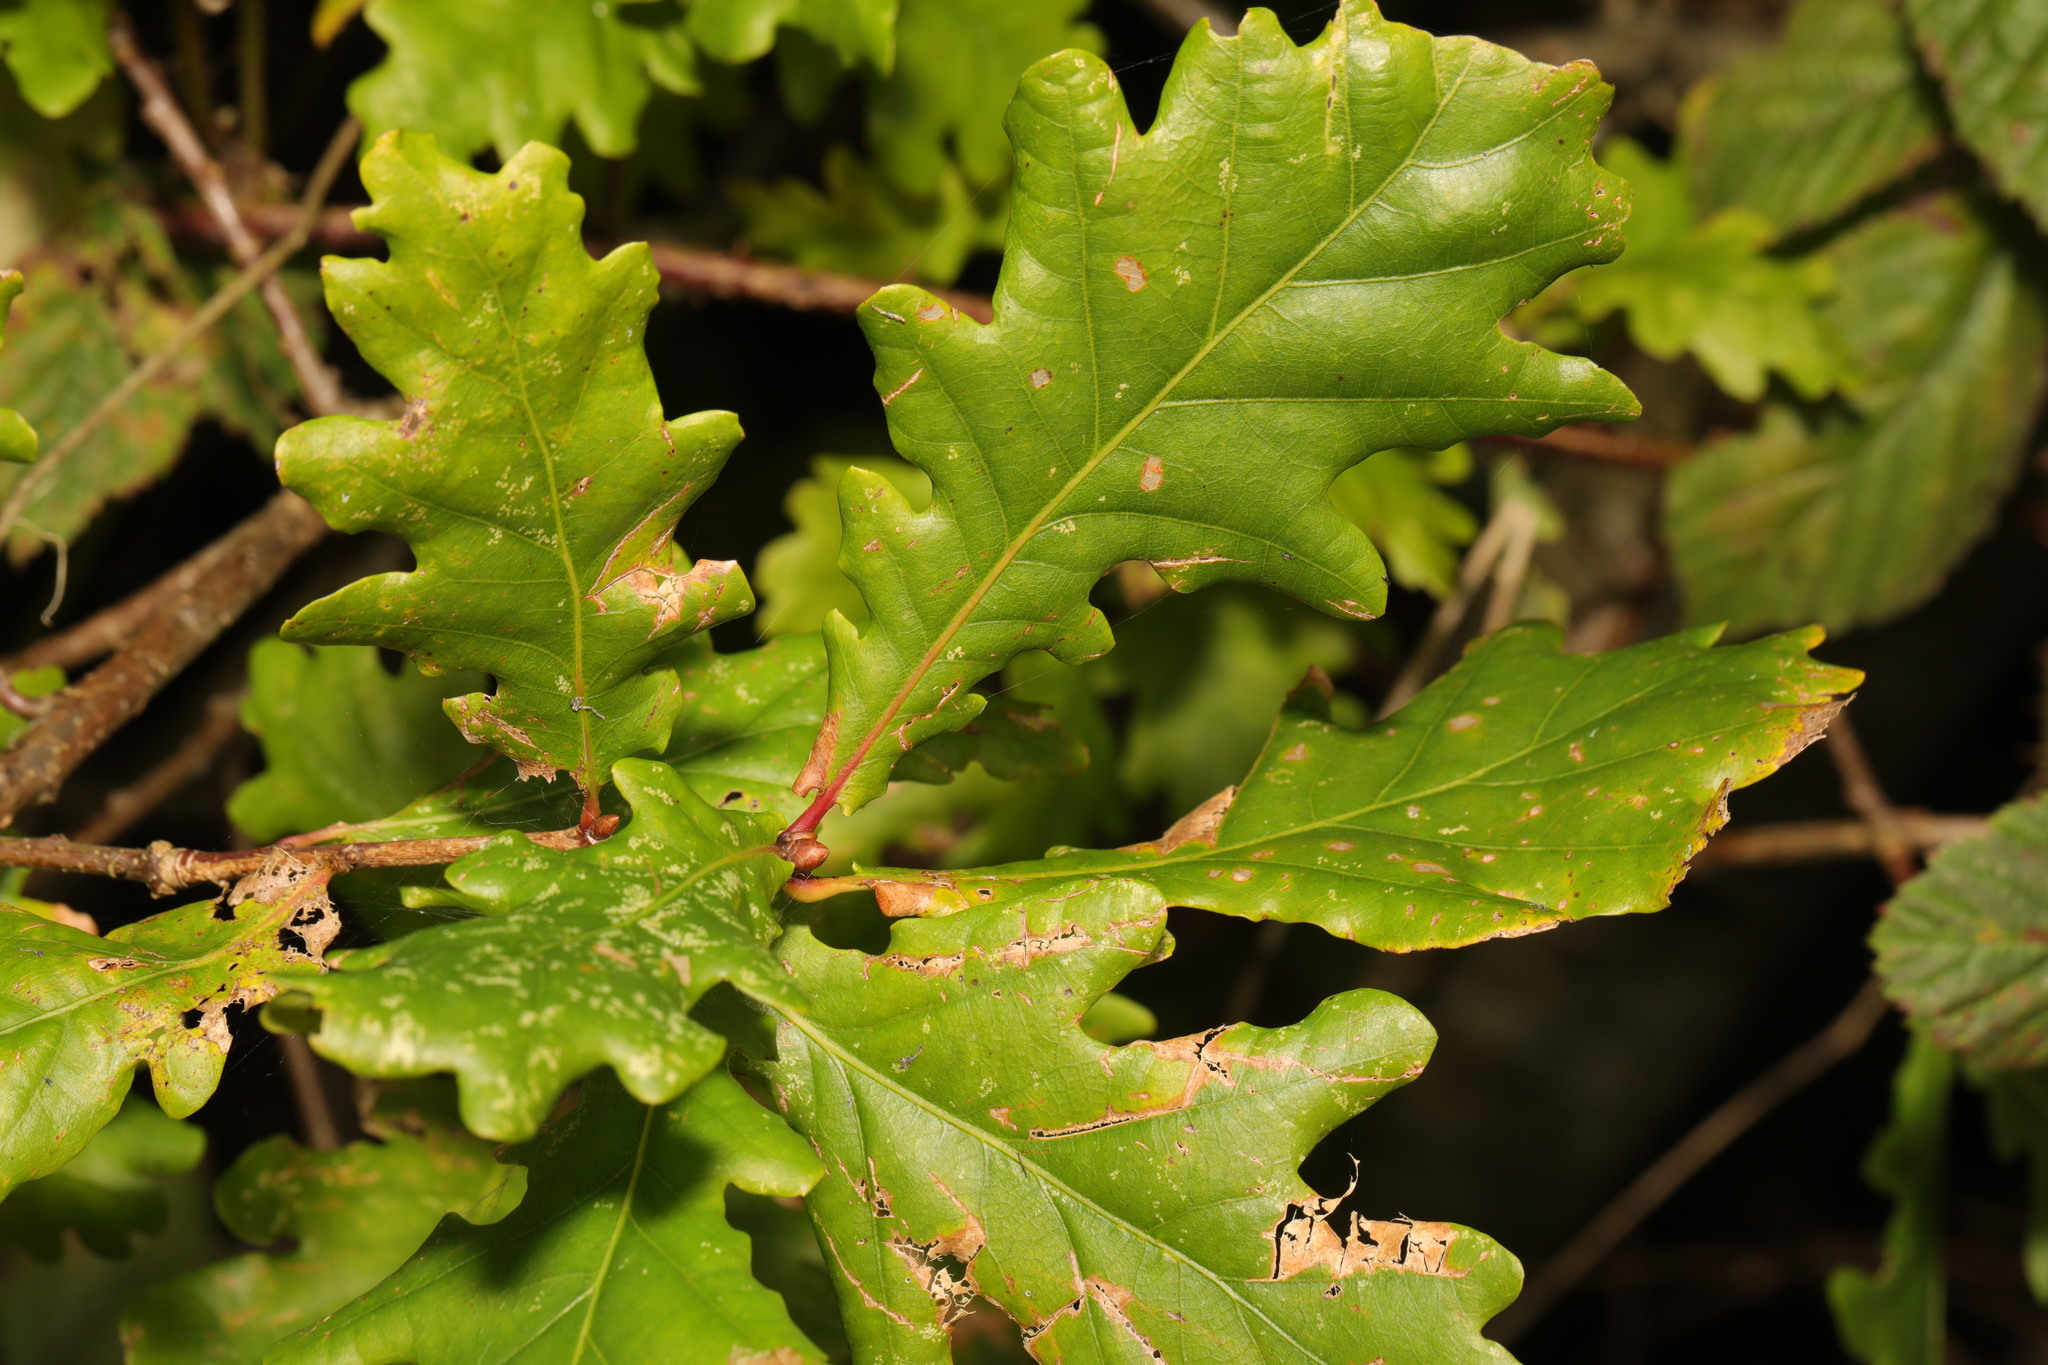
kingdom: Plantae
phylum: Tracheophyta
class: Magnoliopsida
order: Fagales
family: Fagaceae
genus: Quercus
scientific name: Quercus robur
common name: Pedunculate oak
